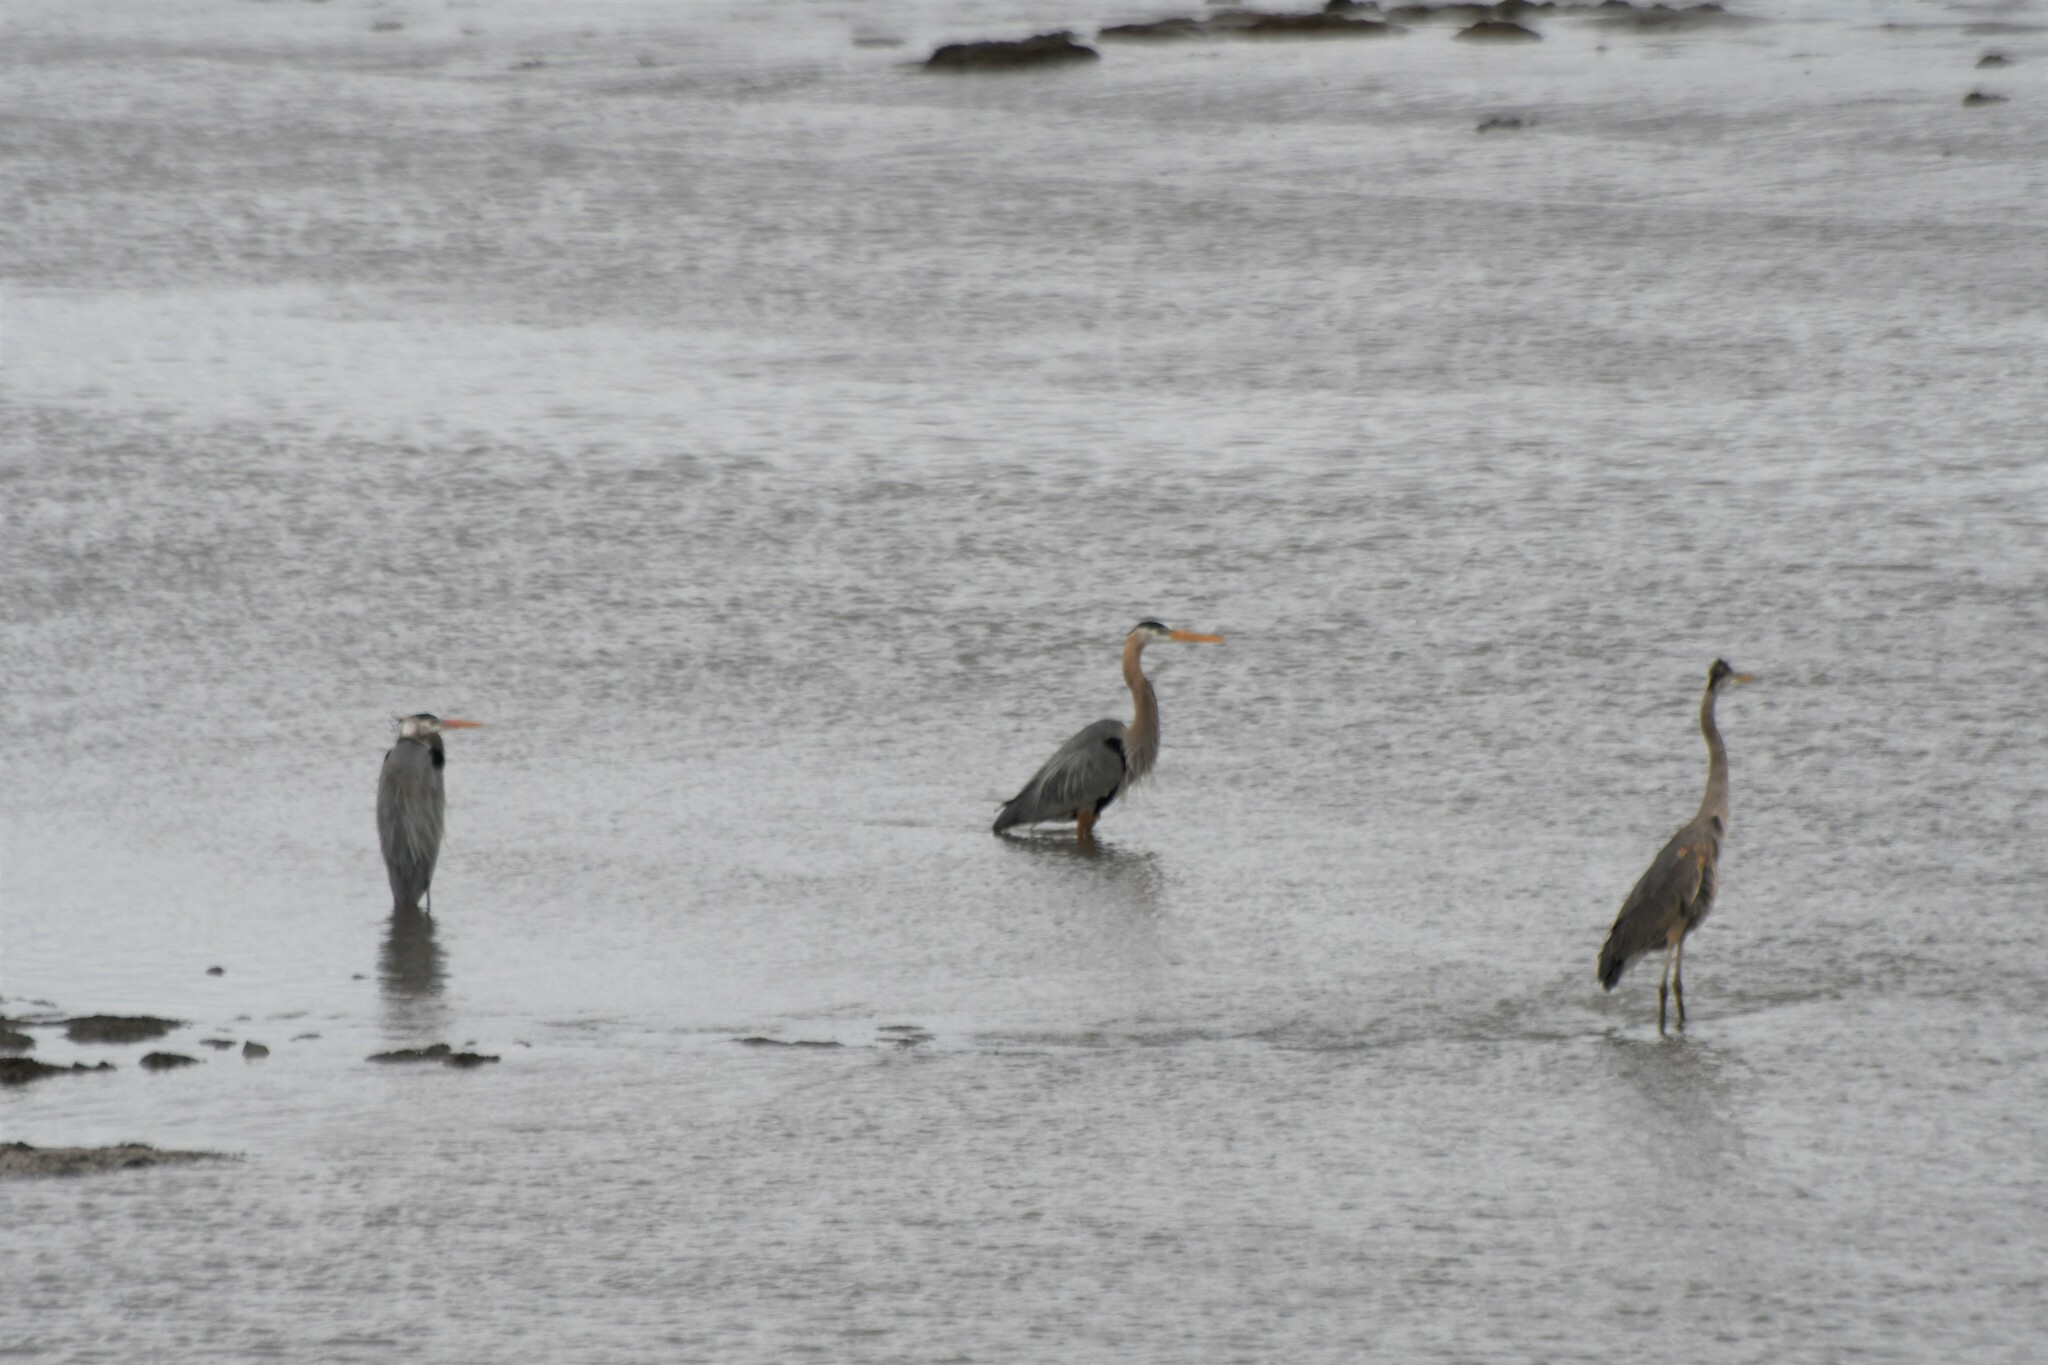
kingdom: Animalia
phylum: Chordata
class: Aves
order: Pelecaniformes
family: Ardeidae
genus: Ardea
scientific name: Ardea herodias
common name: Great blue heron
